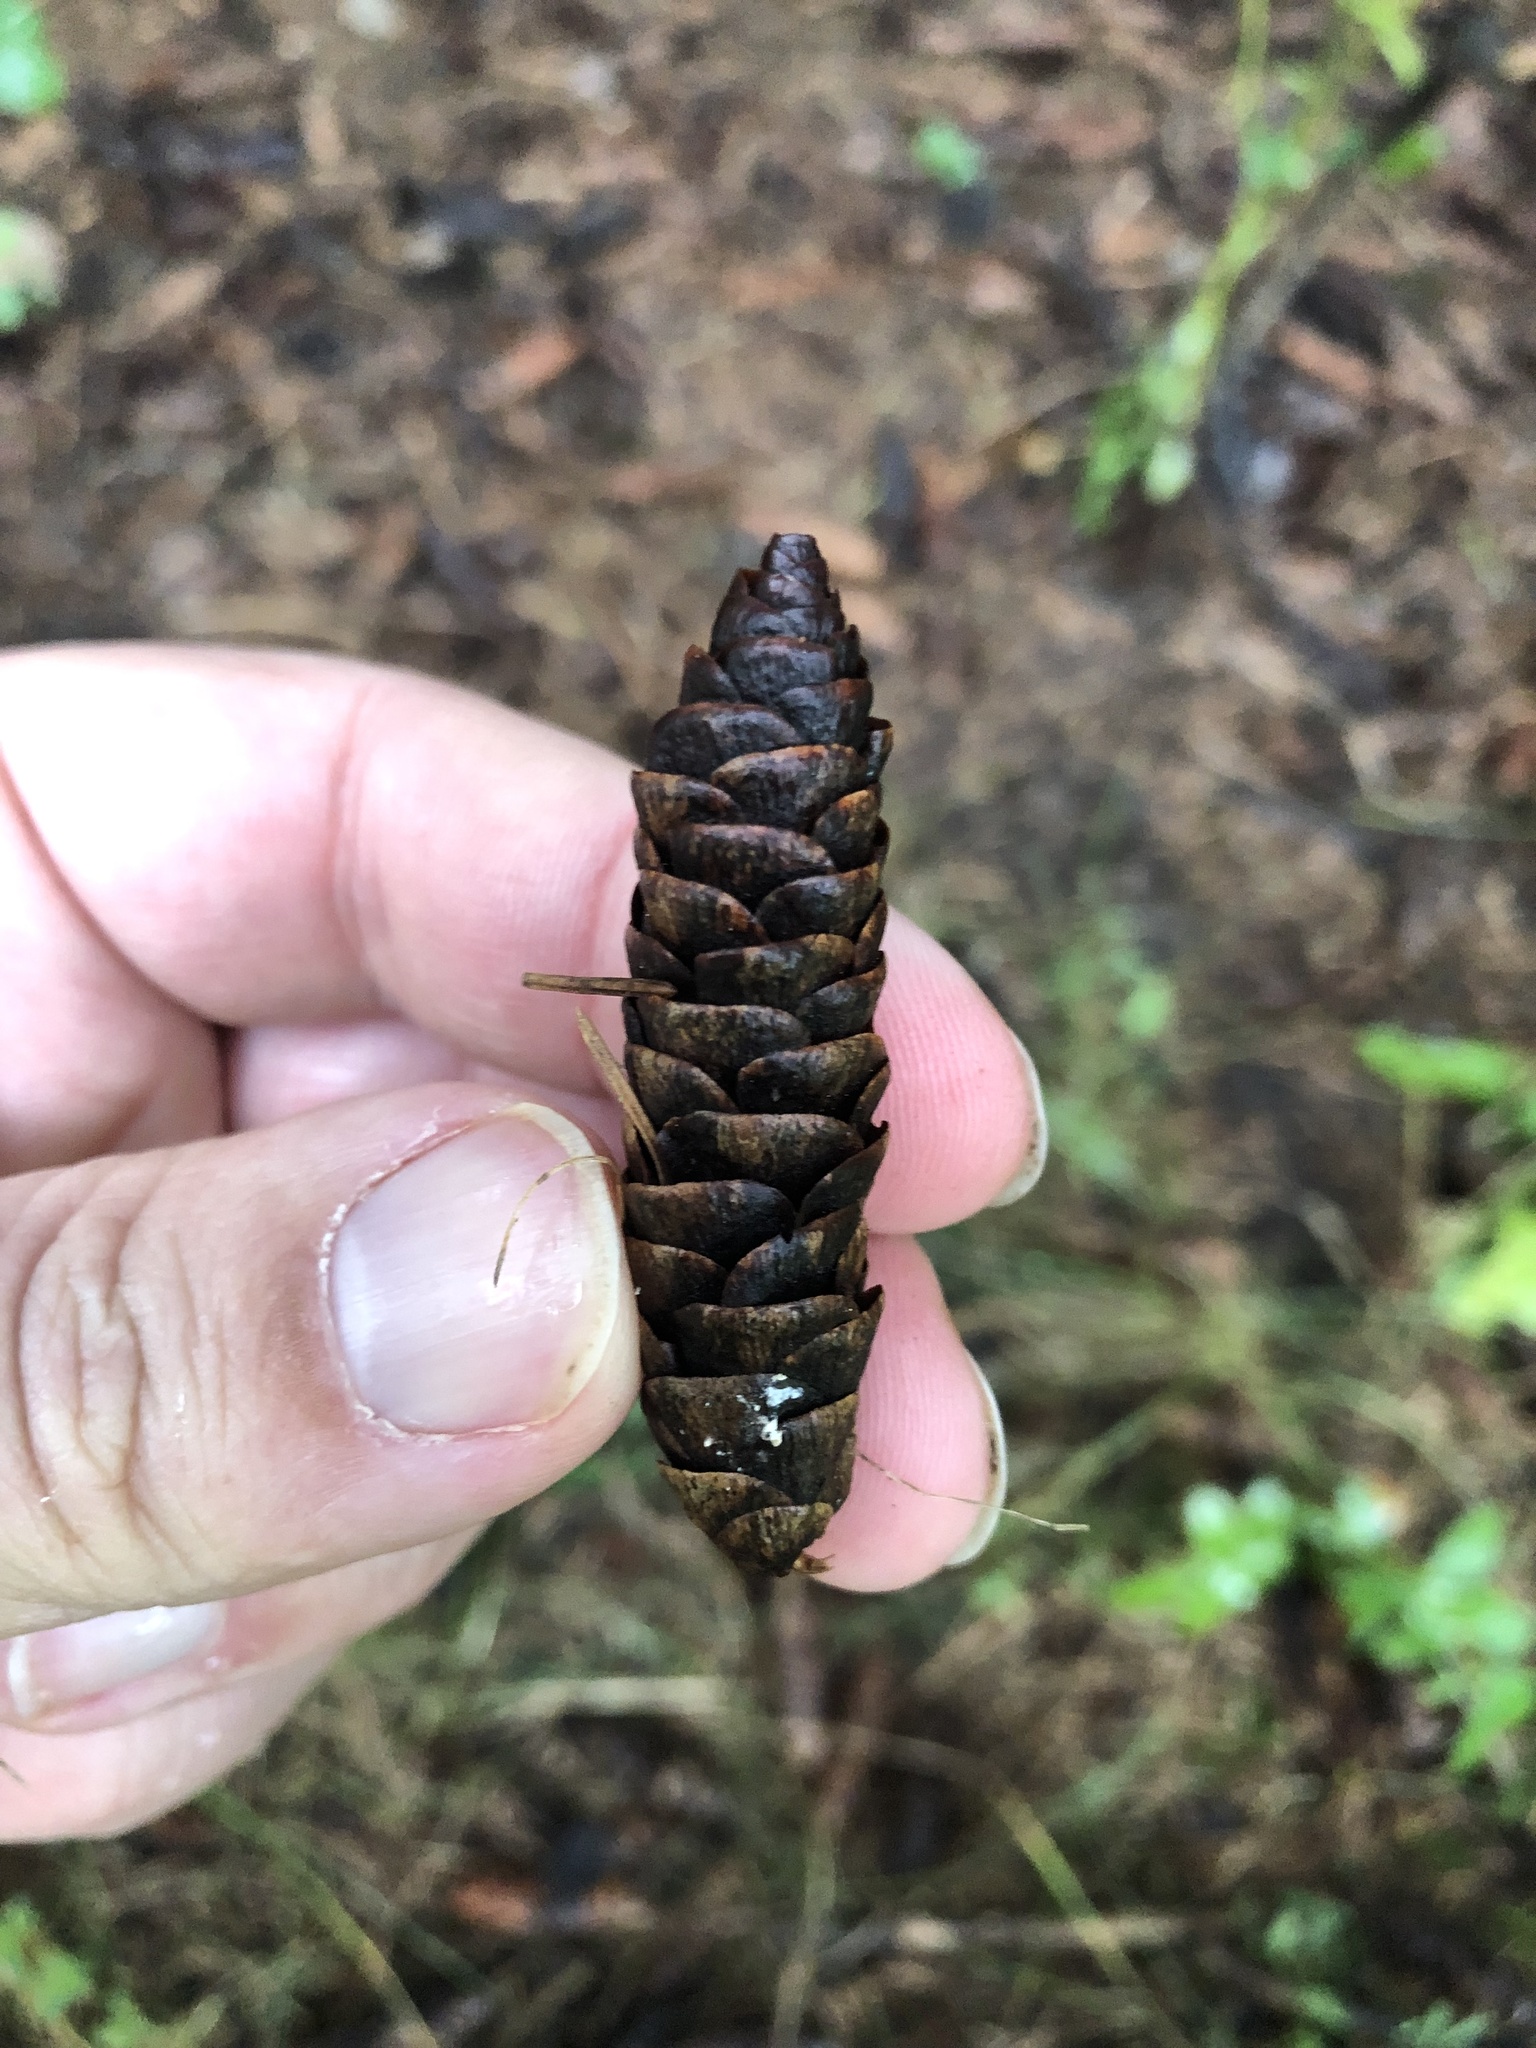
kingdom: Plantae
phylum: Tracheophyta
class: Pinopsida
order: Pinales
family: Pinaceae
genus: Picea
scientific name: Picea glauca
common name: White spruce
